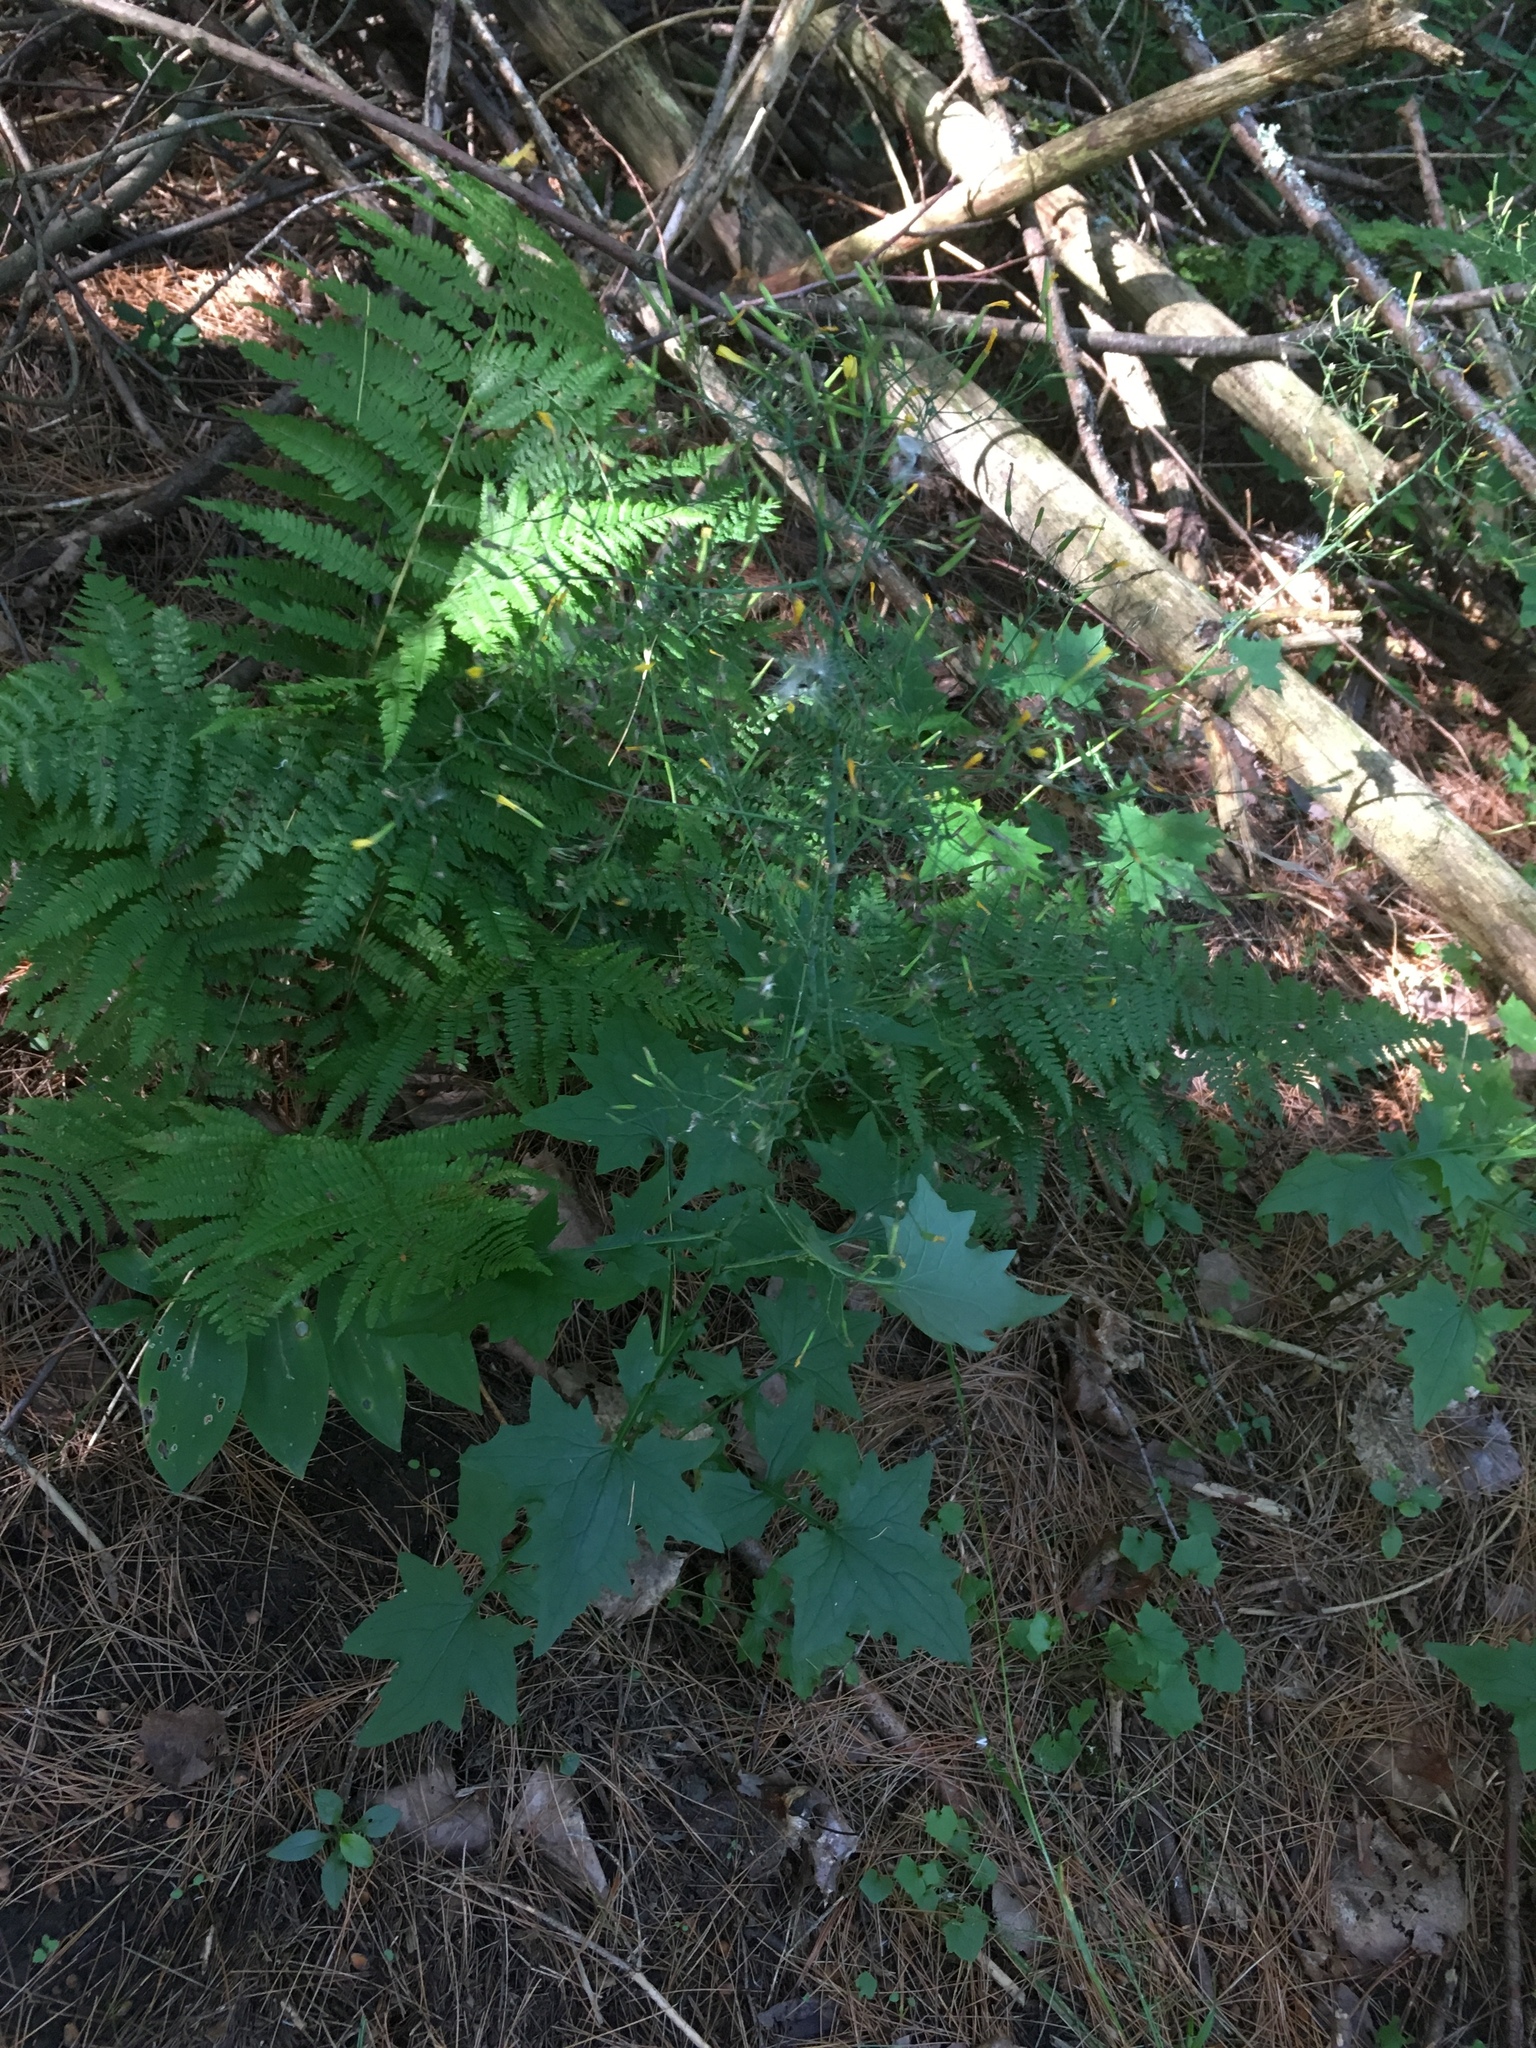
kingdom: Plantae
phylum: Tracheophyta
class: Magnoliopsida
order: Asterales
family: Asteraceae
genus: Mycelis
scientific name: Mycelis muralis
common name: Wall lettuce
